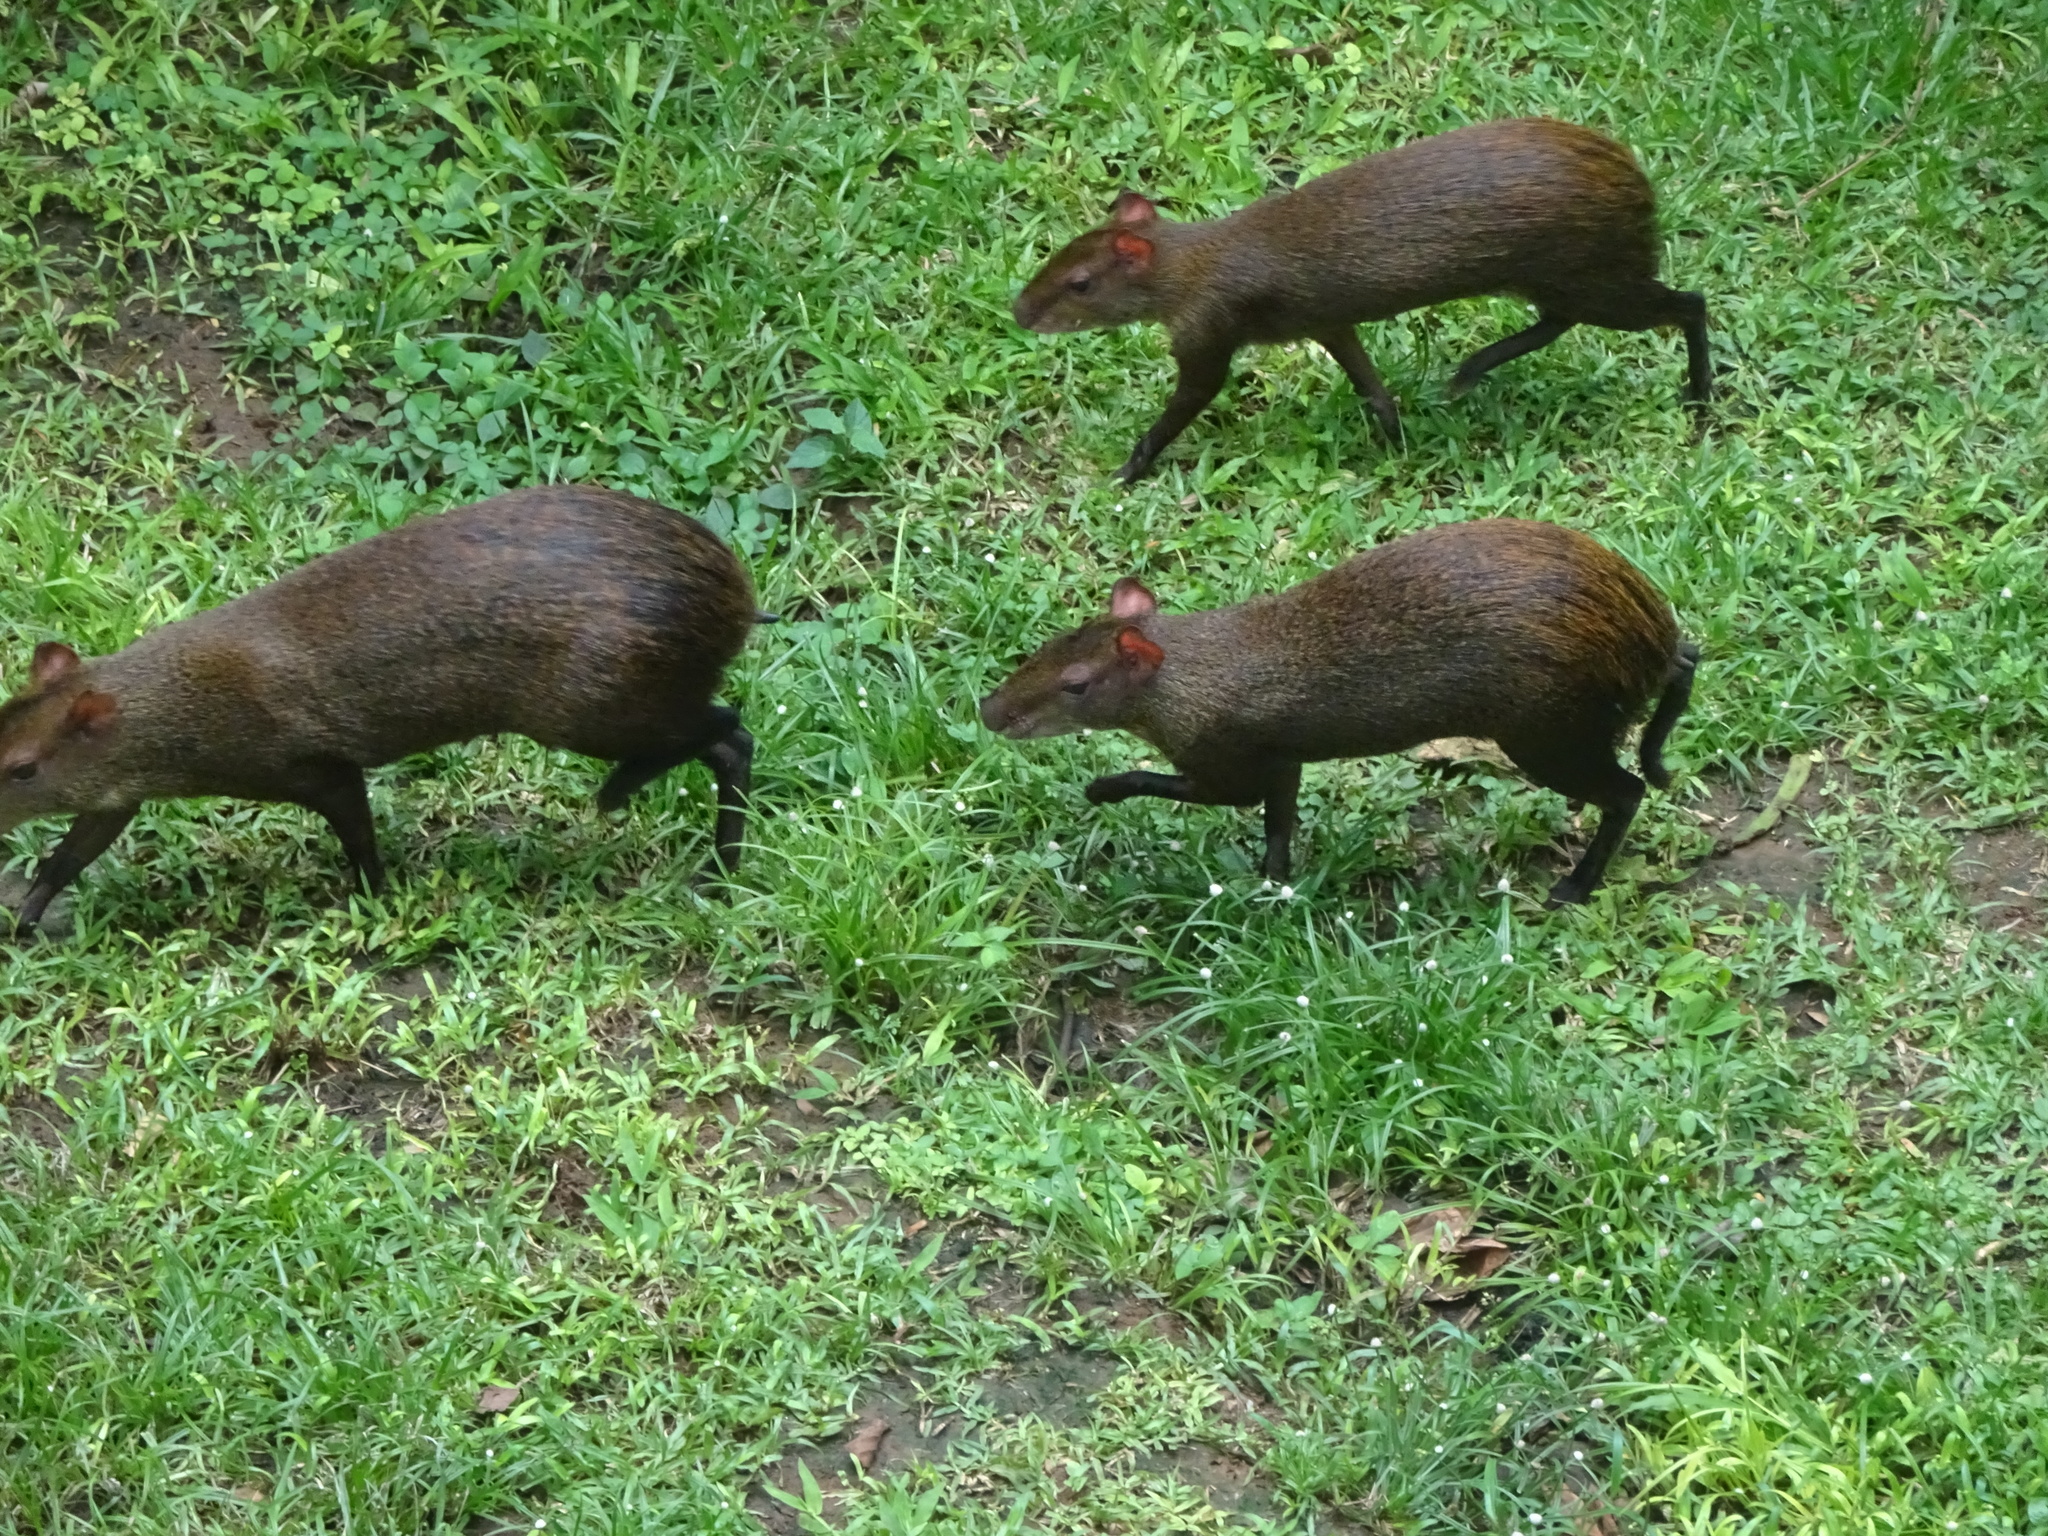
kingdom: Animalia
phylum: Chordata
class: Mammalia
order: Rodentia
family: Dasyproctidae
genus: Dasyprocta
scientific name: Dasyprocta punctata
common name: Central american agouti
